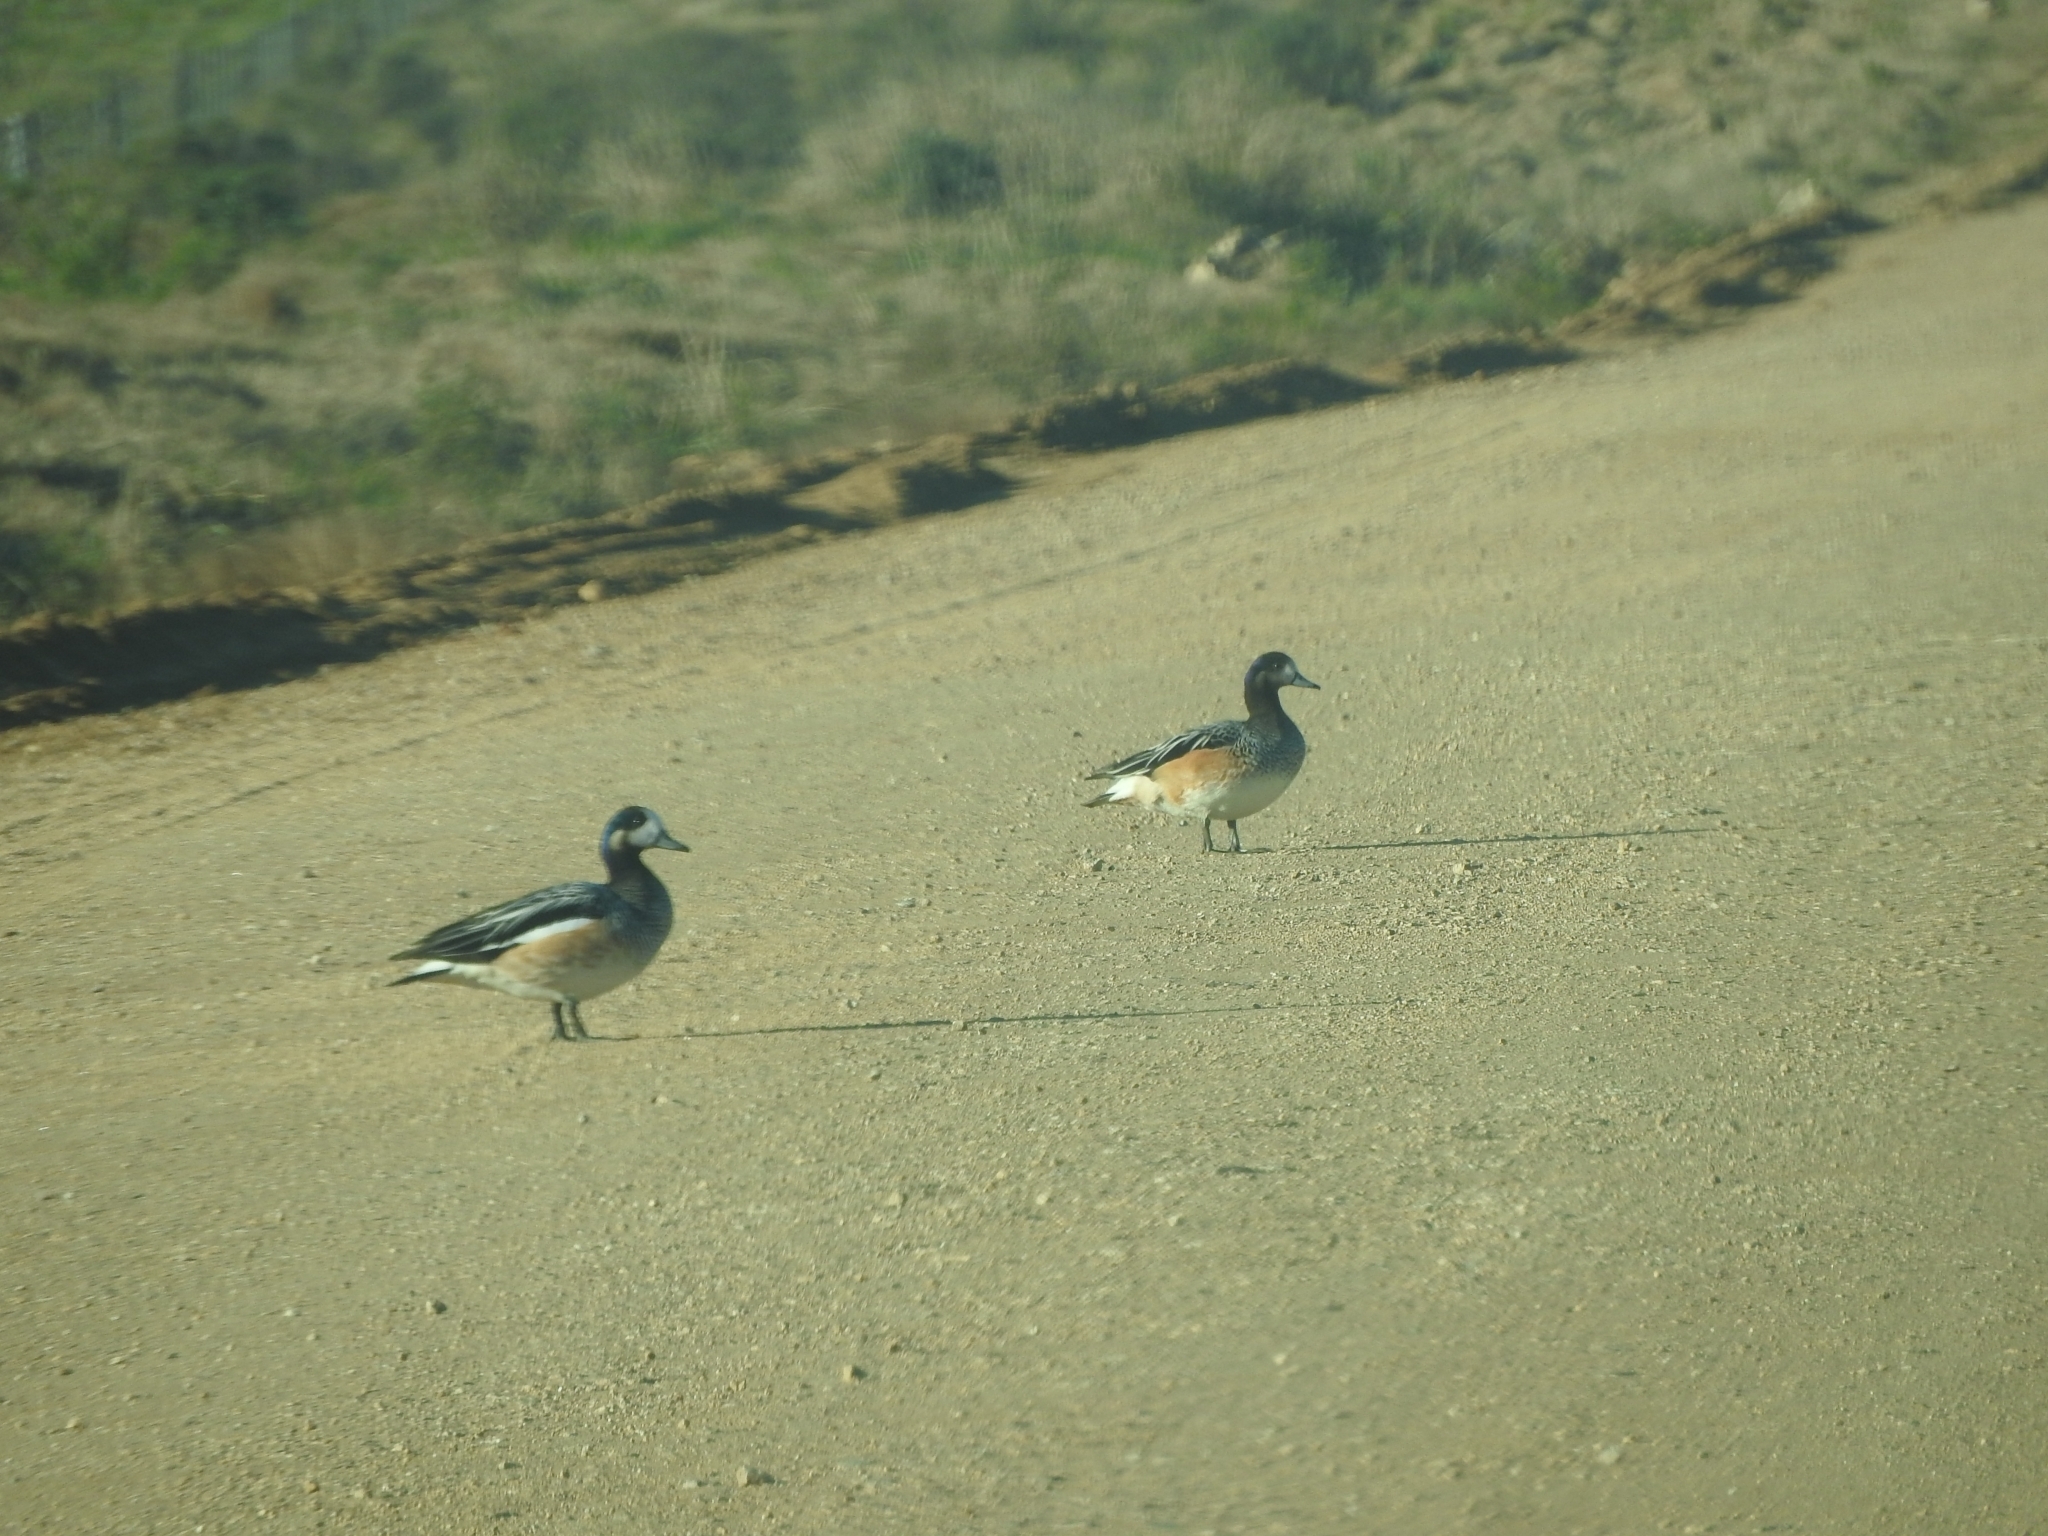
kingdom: Animalia
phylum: Chordata
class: Aves
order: Anseriformes
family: Anatidae
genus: Mareca
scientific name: Mareca sibilatrix
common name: Chiloe wigeon
